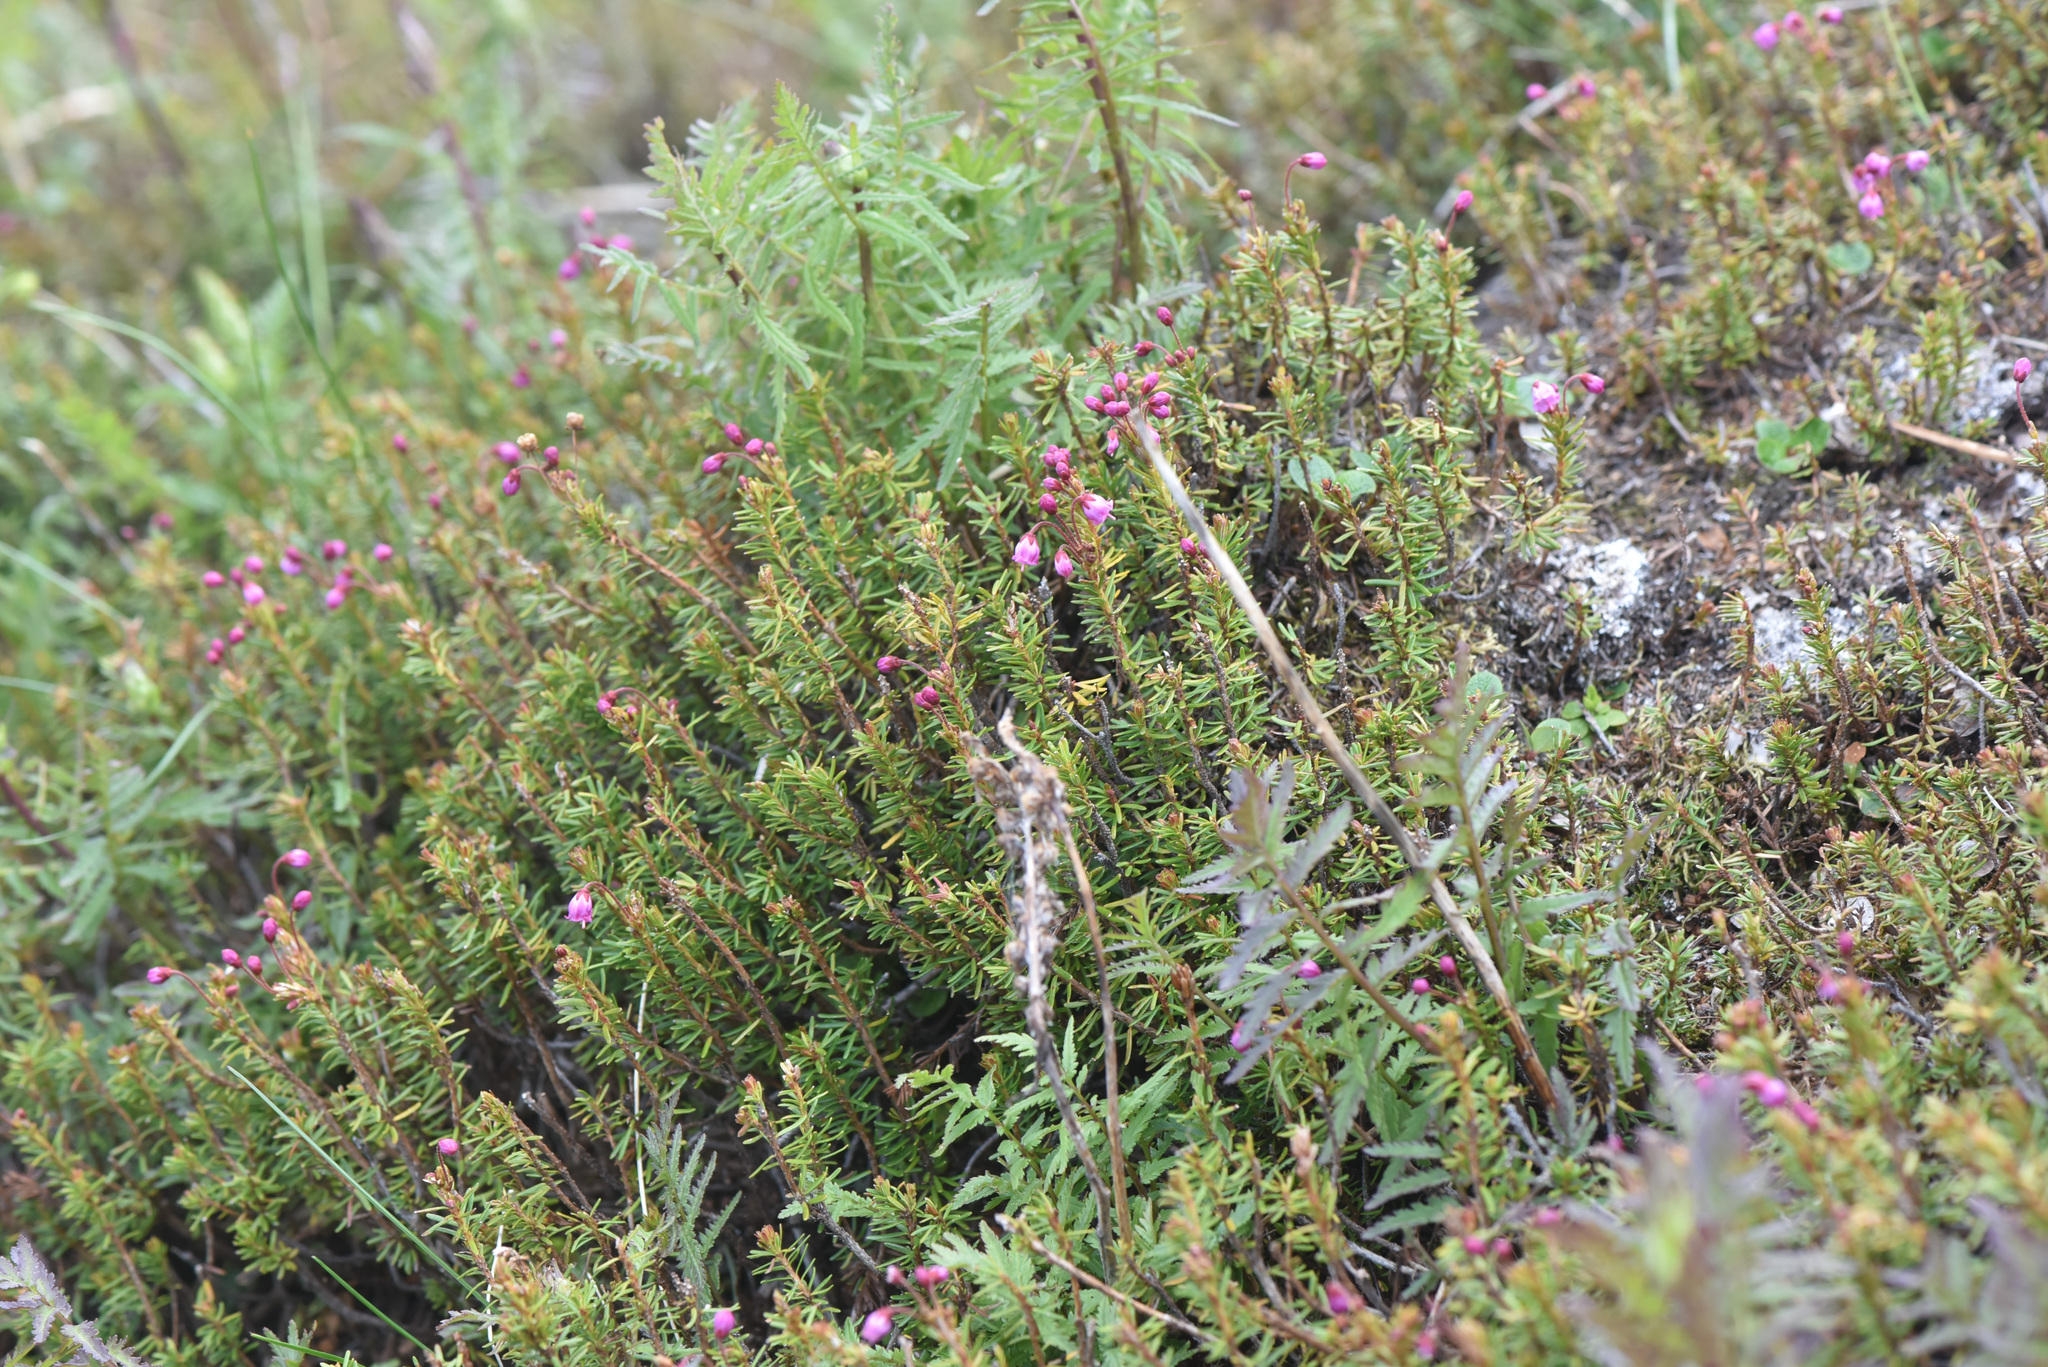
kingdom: Plantae
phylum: Tracheophyta
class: Magnoliopsida
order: Ericales
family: Ericaceae
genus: Phyllodoce
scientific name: Phyllodoce empetriformis
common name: Pink mountain heather
